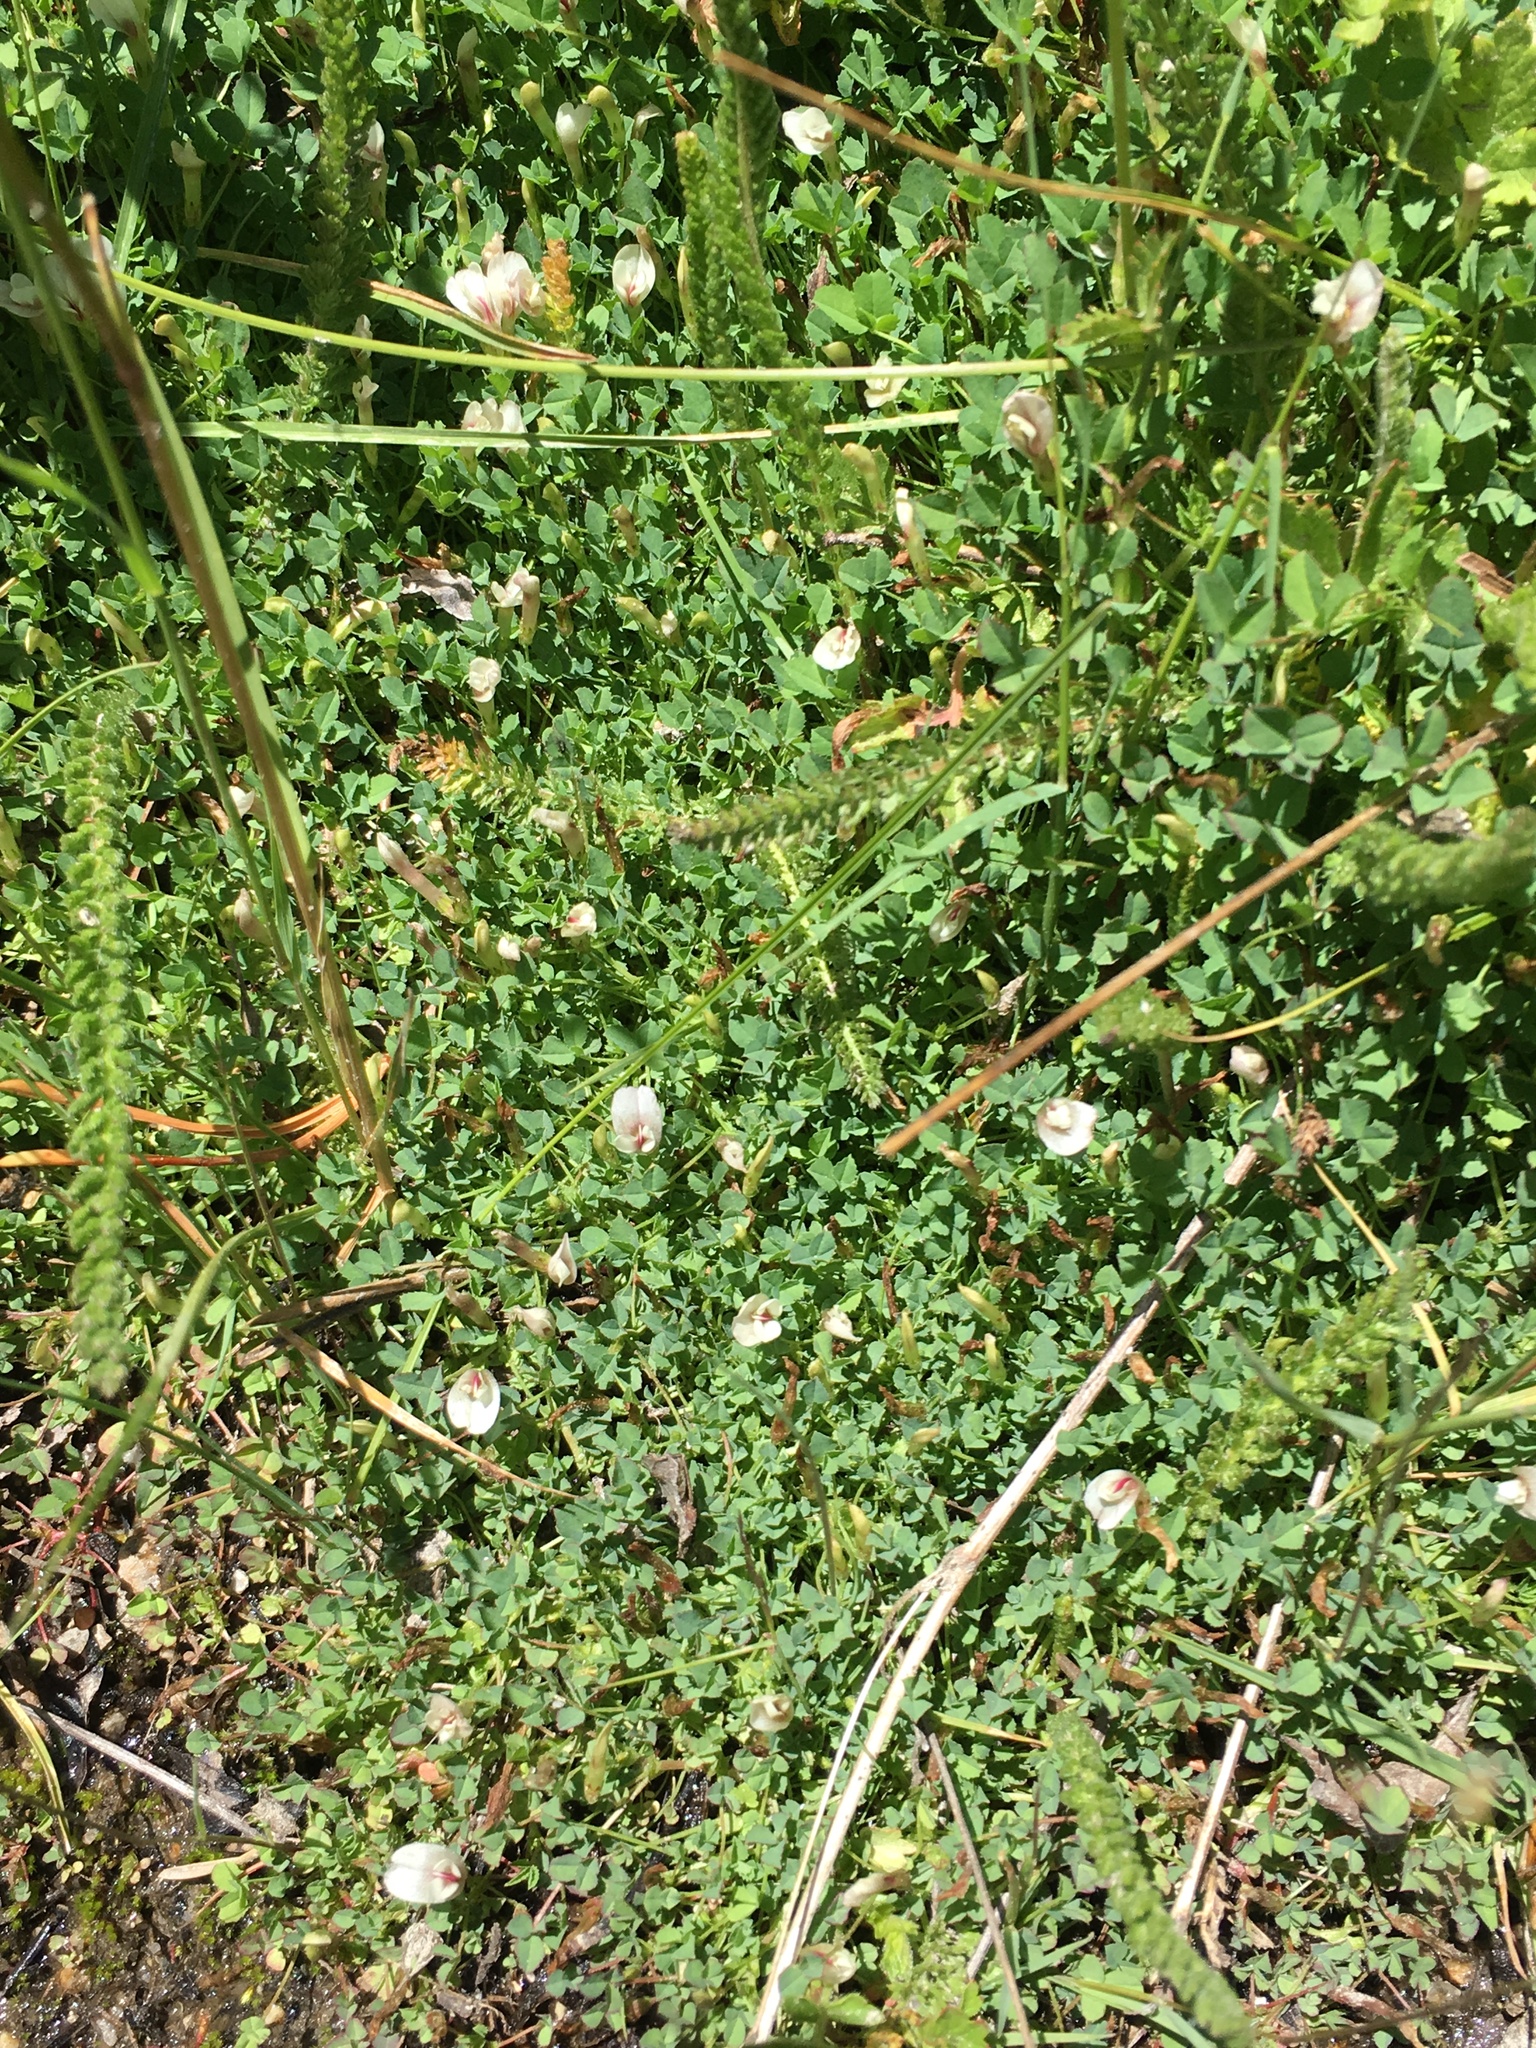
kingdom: Plantae
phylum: Tracheophyta
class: Magnoliopsida
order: Fabales
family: Fabaceae
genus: Trifolium
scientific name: Trifolium monanthum
